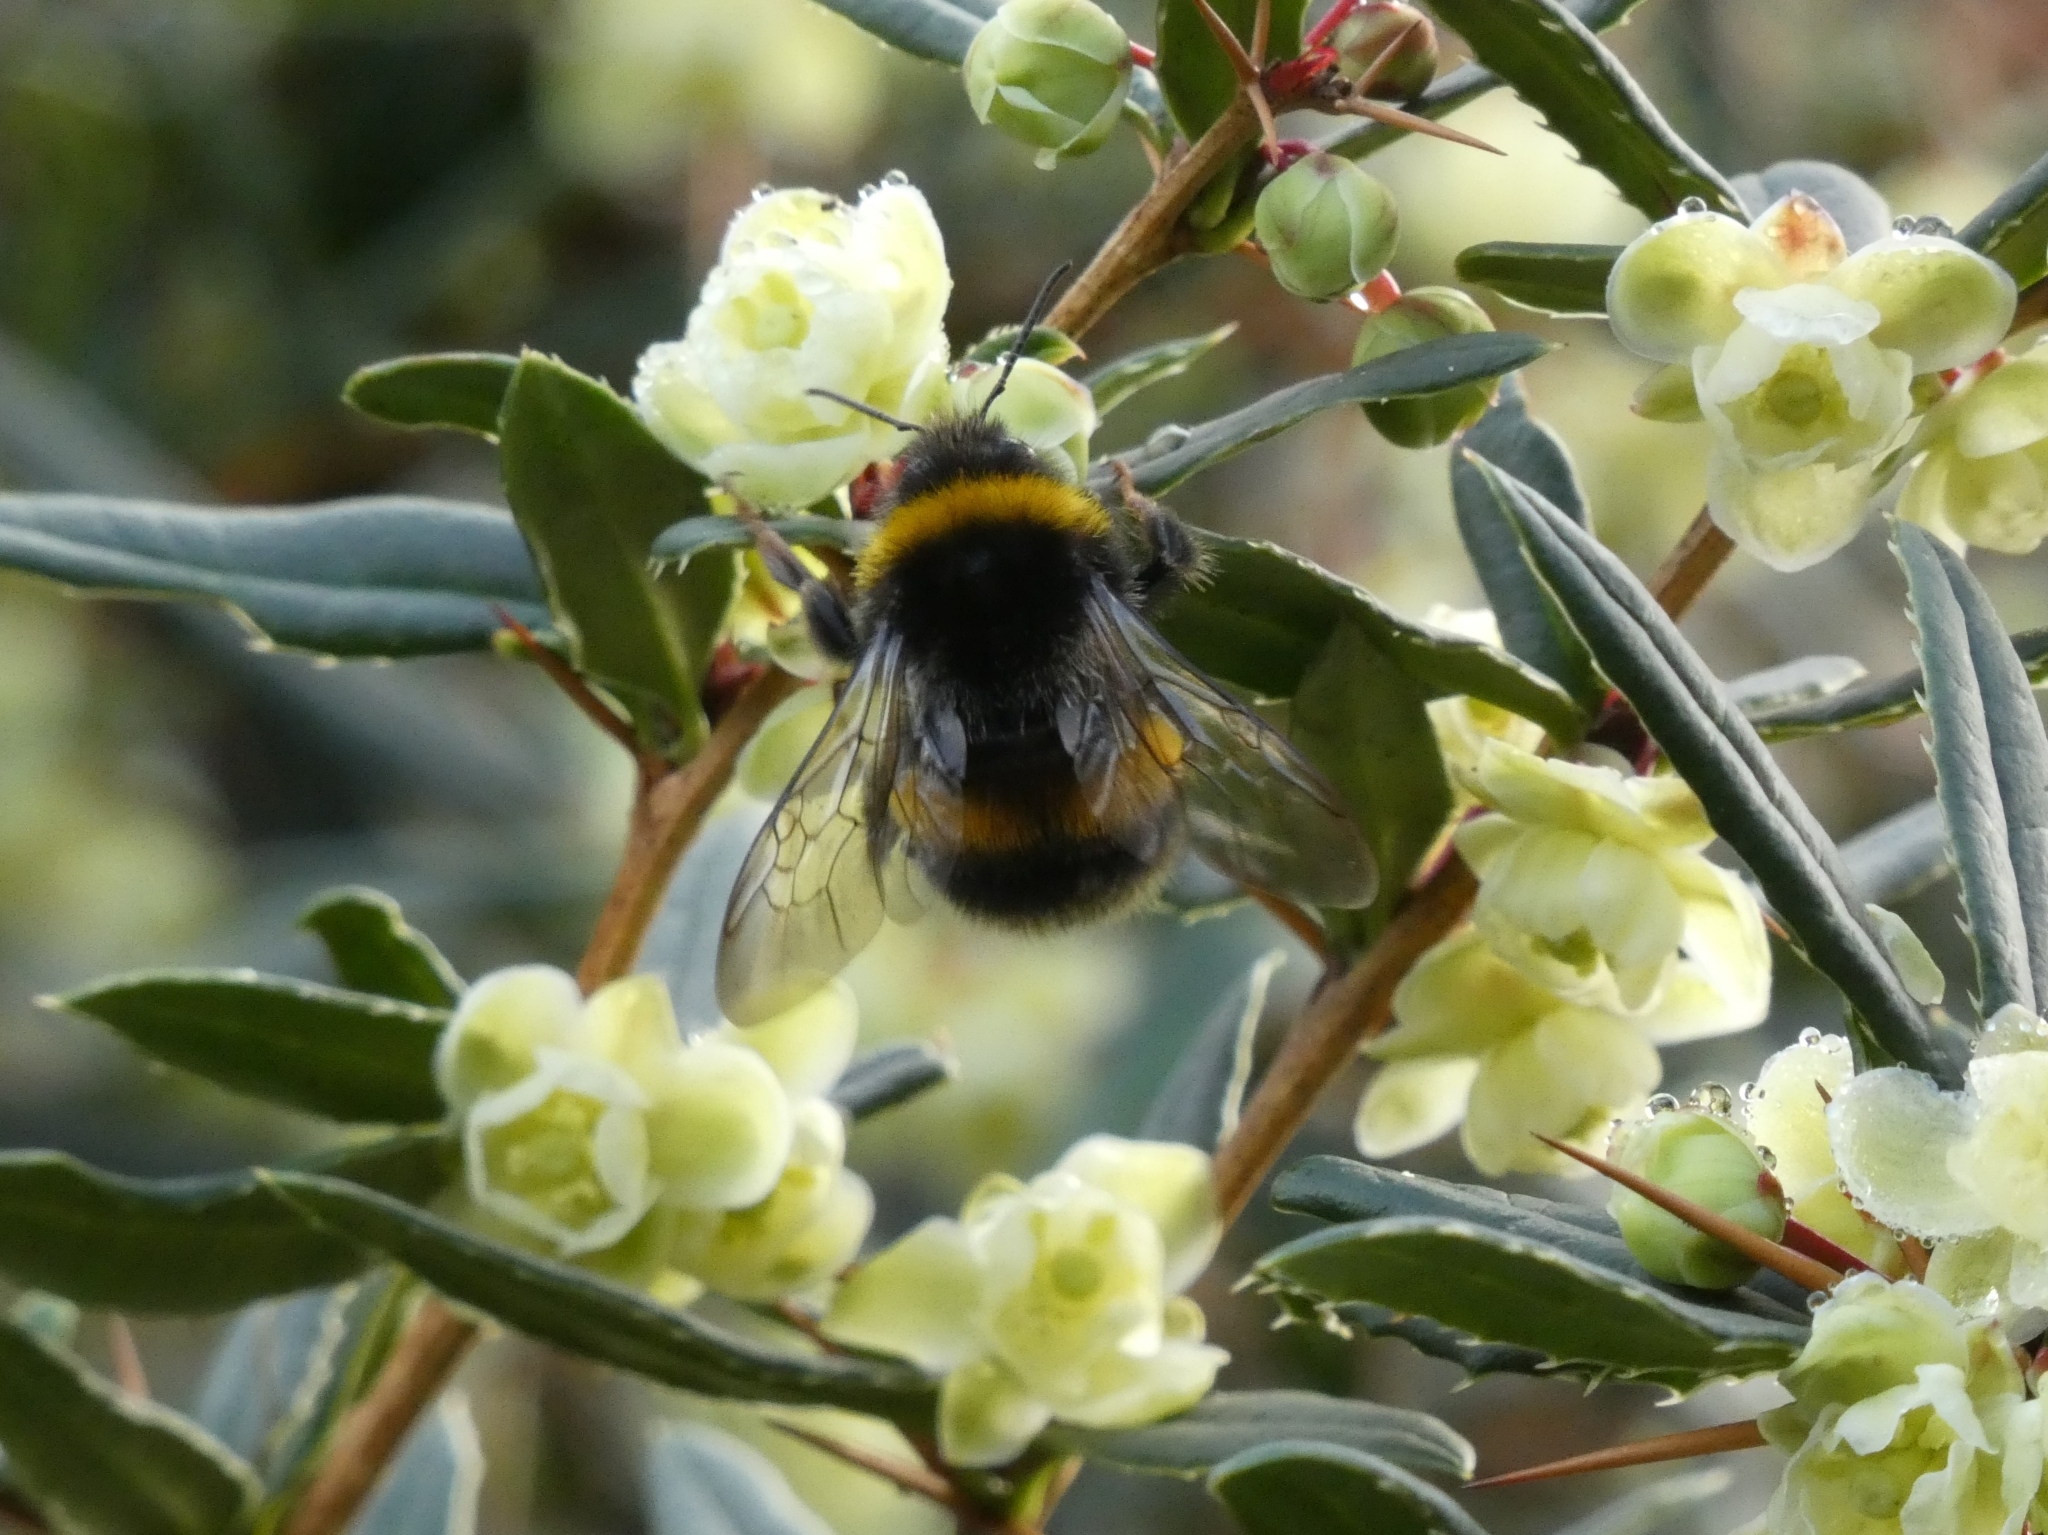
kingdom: Animalia
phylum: Arthropoda
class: Insecta
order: Hymenoptera
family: Apidae
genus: Bombus
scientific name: Bombus terrestris
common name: Buff-tailed bumblebee
